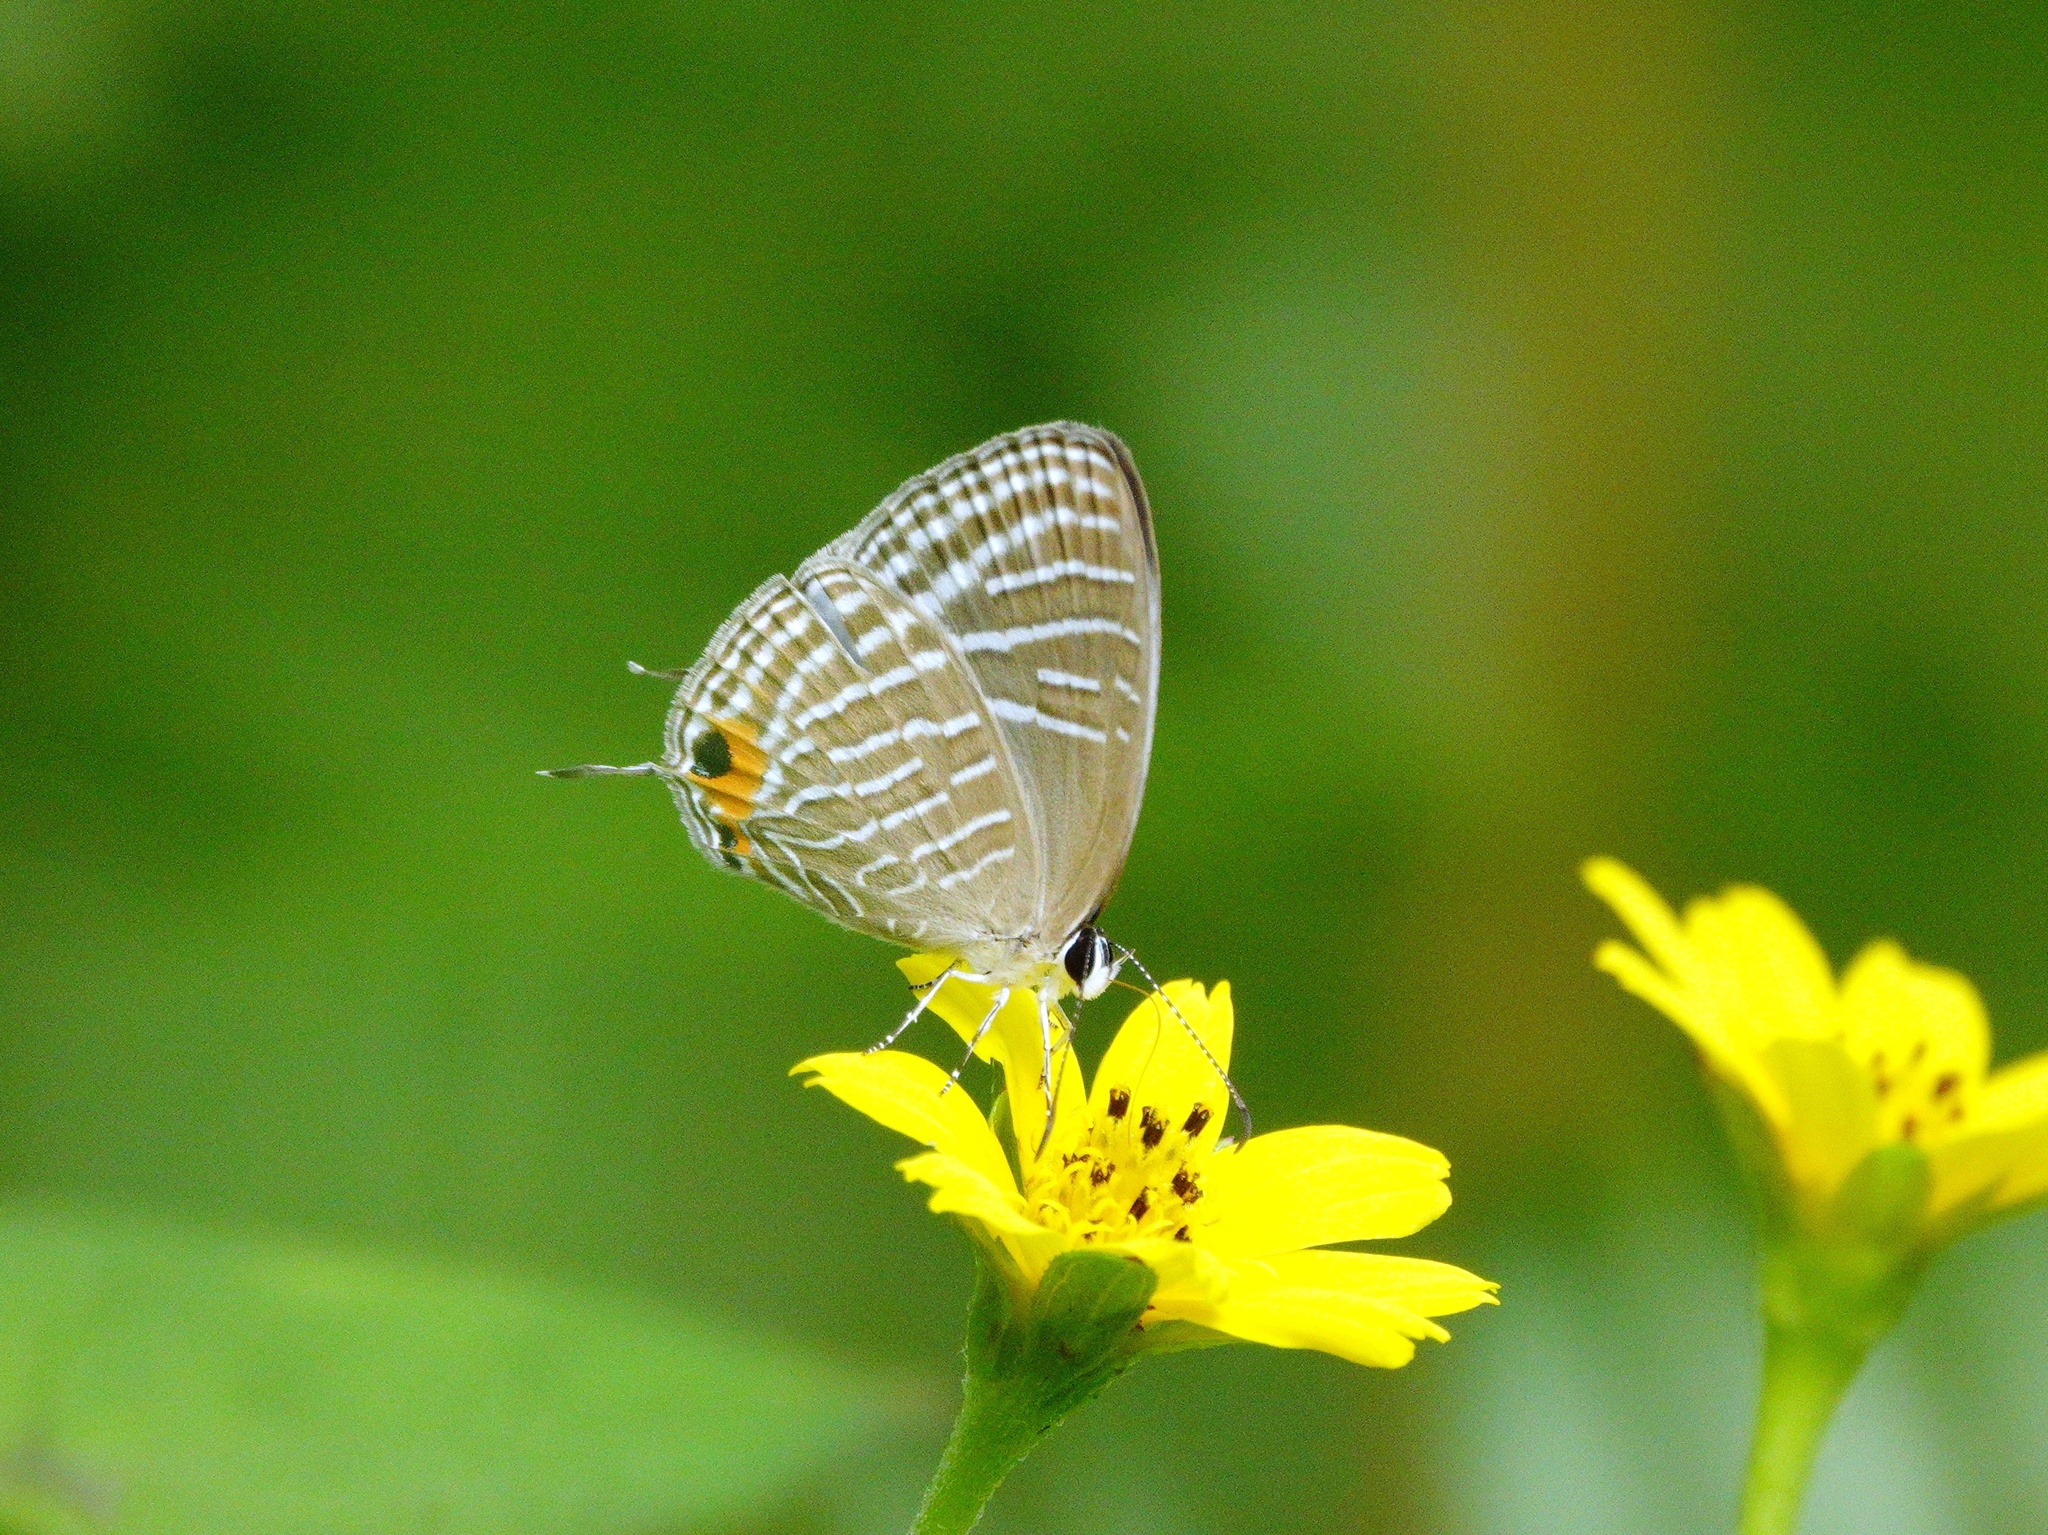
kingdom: Animalia
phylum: Arthropoda
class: Insecta
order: Lepidoptera
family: Lycaenidae
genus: Jamides
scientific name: Jamides celeno
